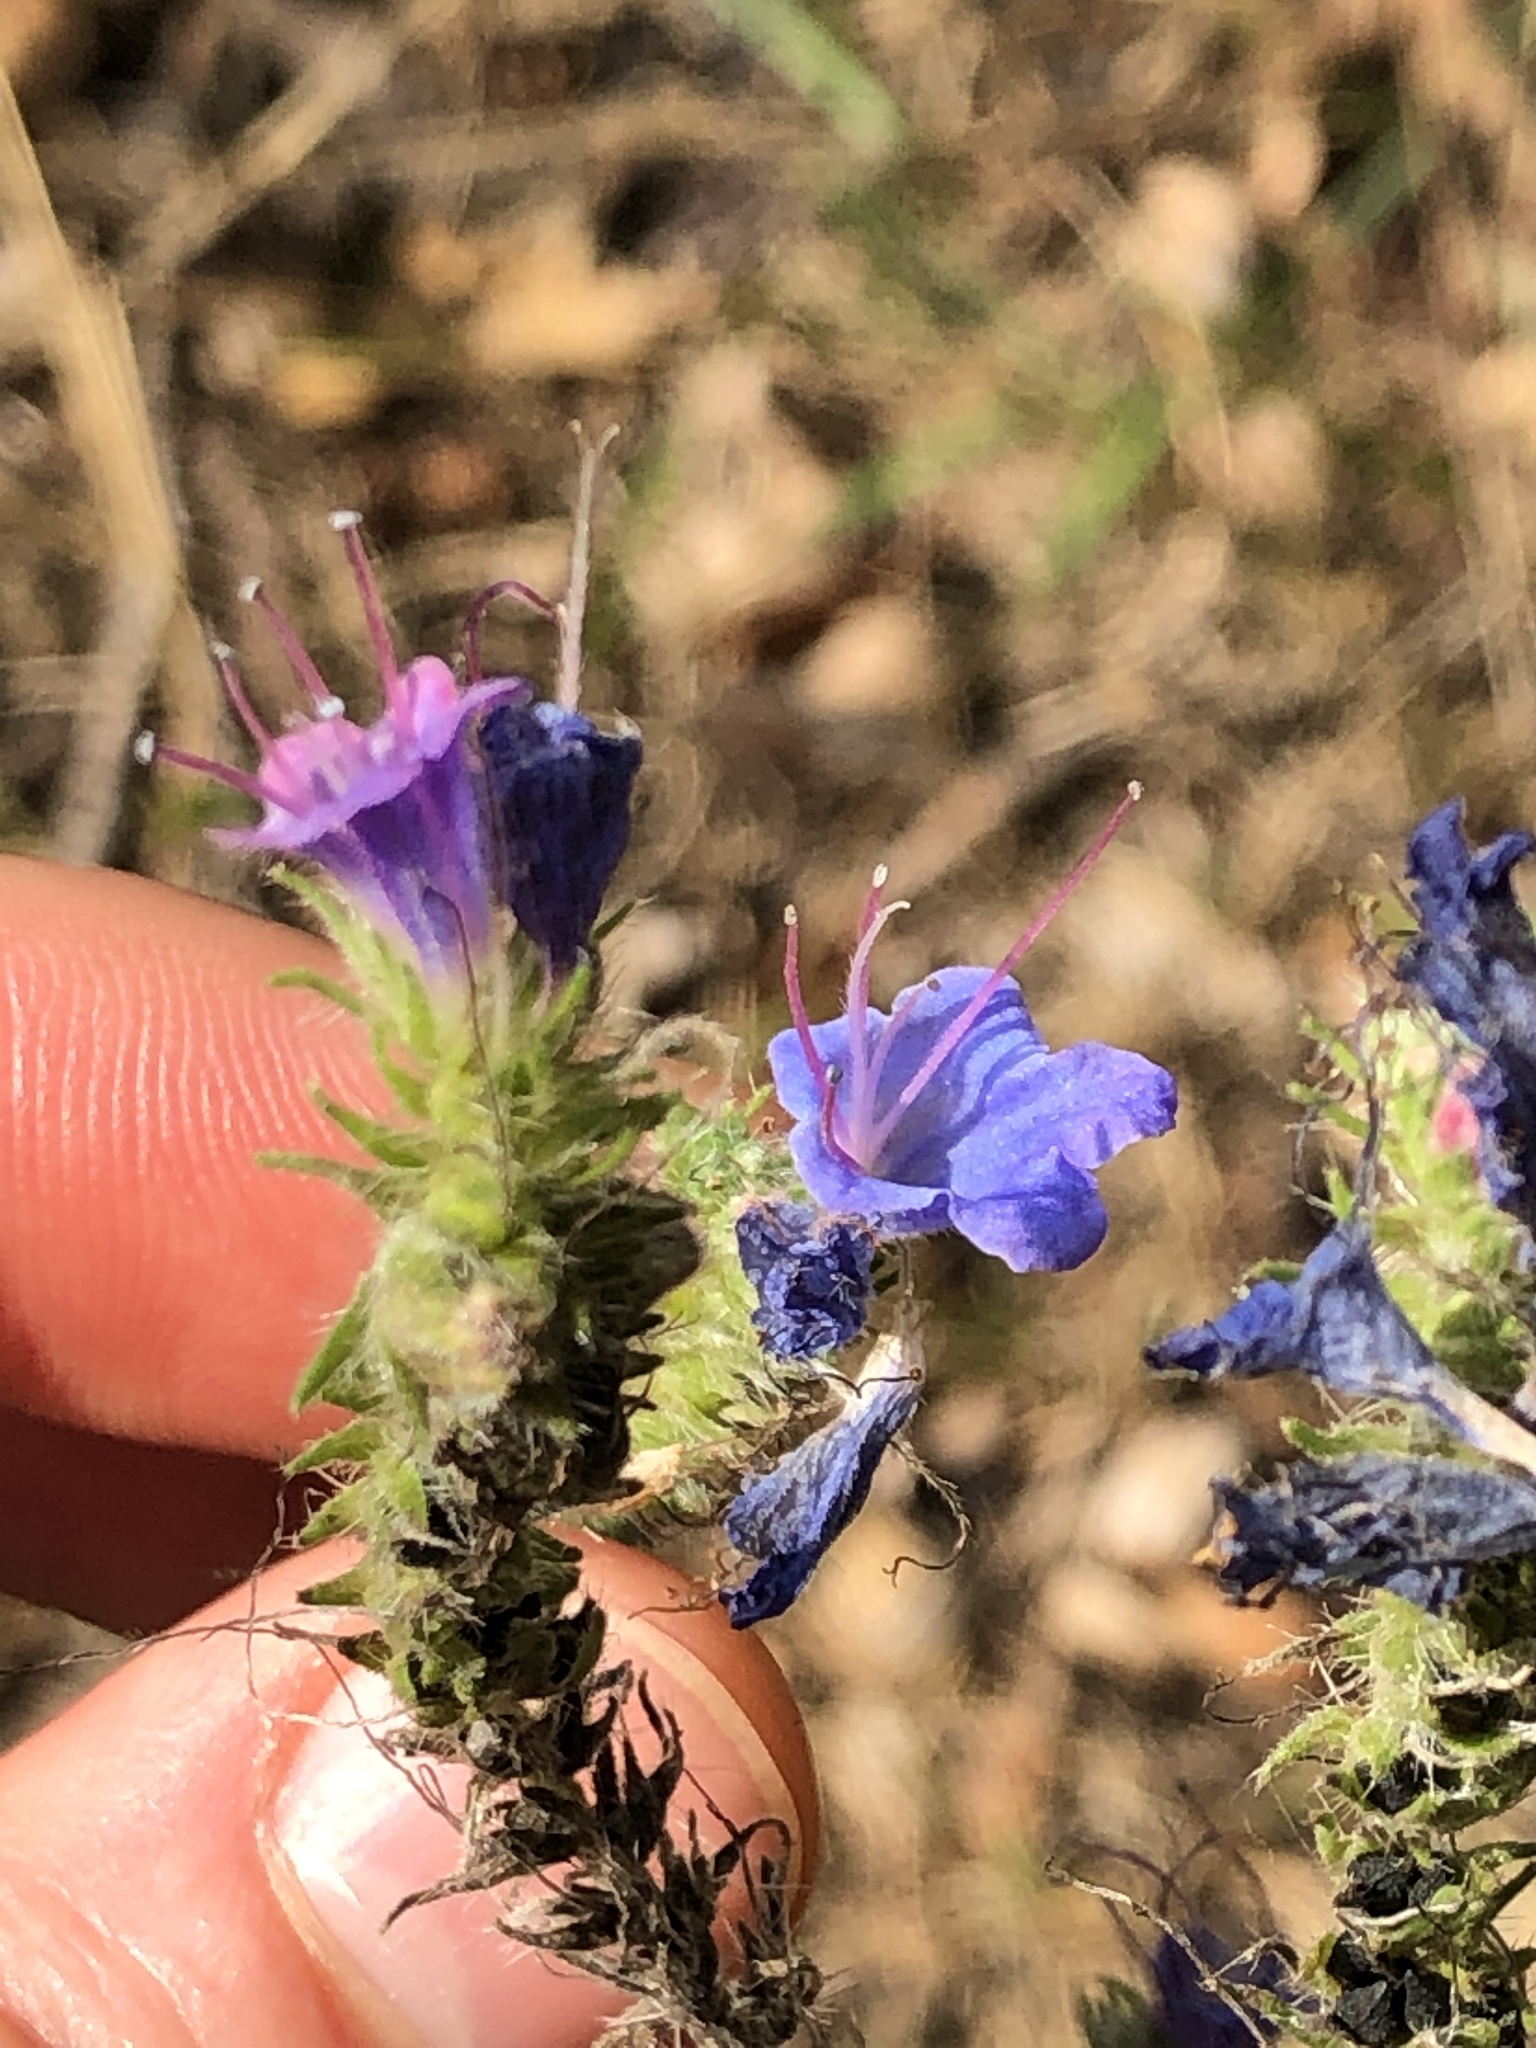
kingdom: Plantae
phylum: Tracheophyta
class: Magnoliopsida
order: Boraginales
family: Boraginaceae
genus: Echium
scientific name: Echium vulgare
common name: Common viper's bugloss
